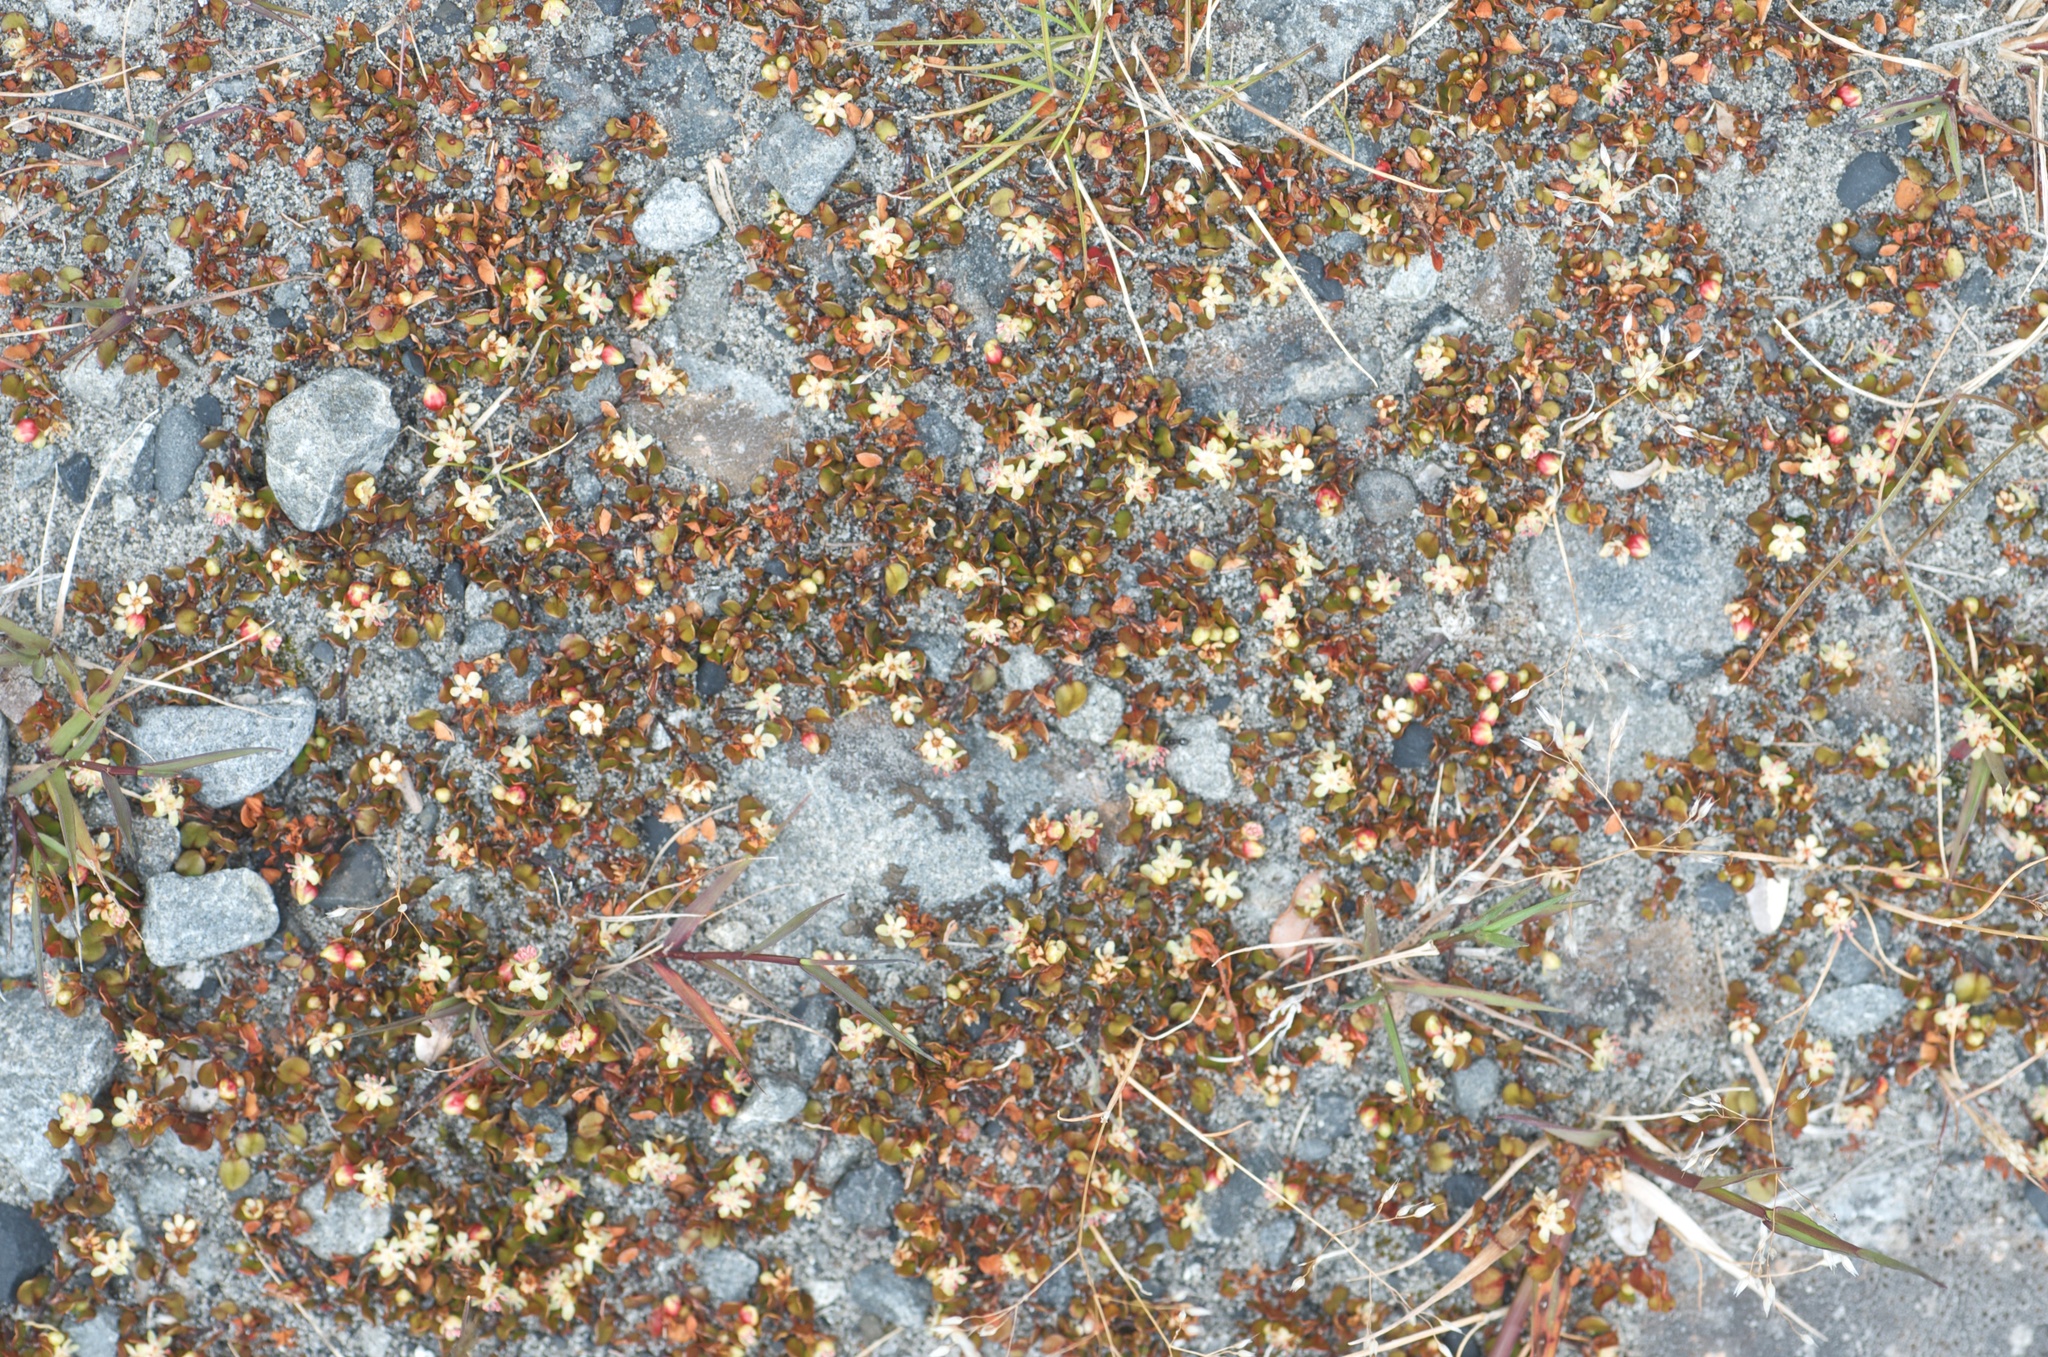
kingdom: Plantae
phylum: Tracheophyta
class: Magnoliopsida
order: Caryophyllales
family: Polygonaceae
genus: Muehlenbeckia
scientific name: Muehlenbeckia axillaris
